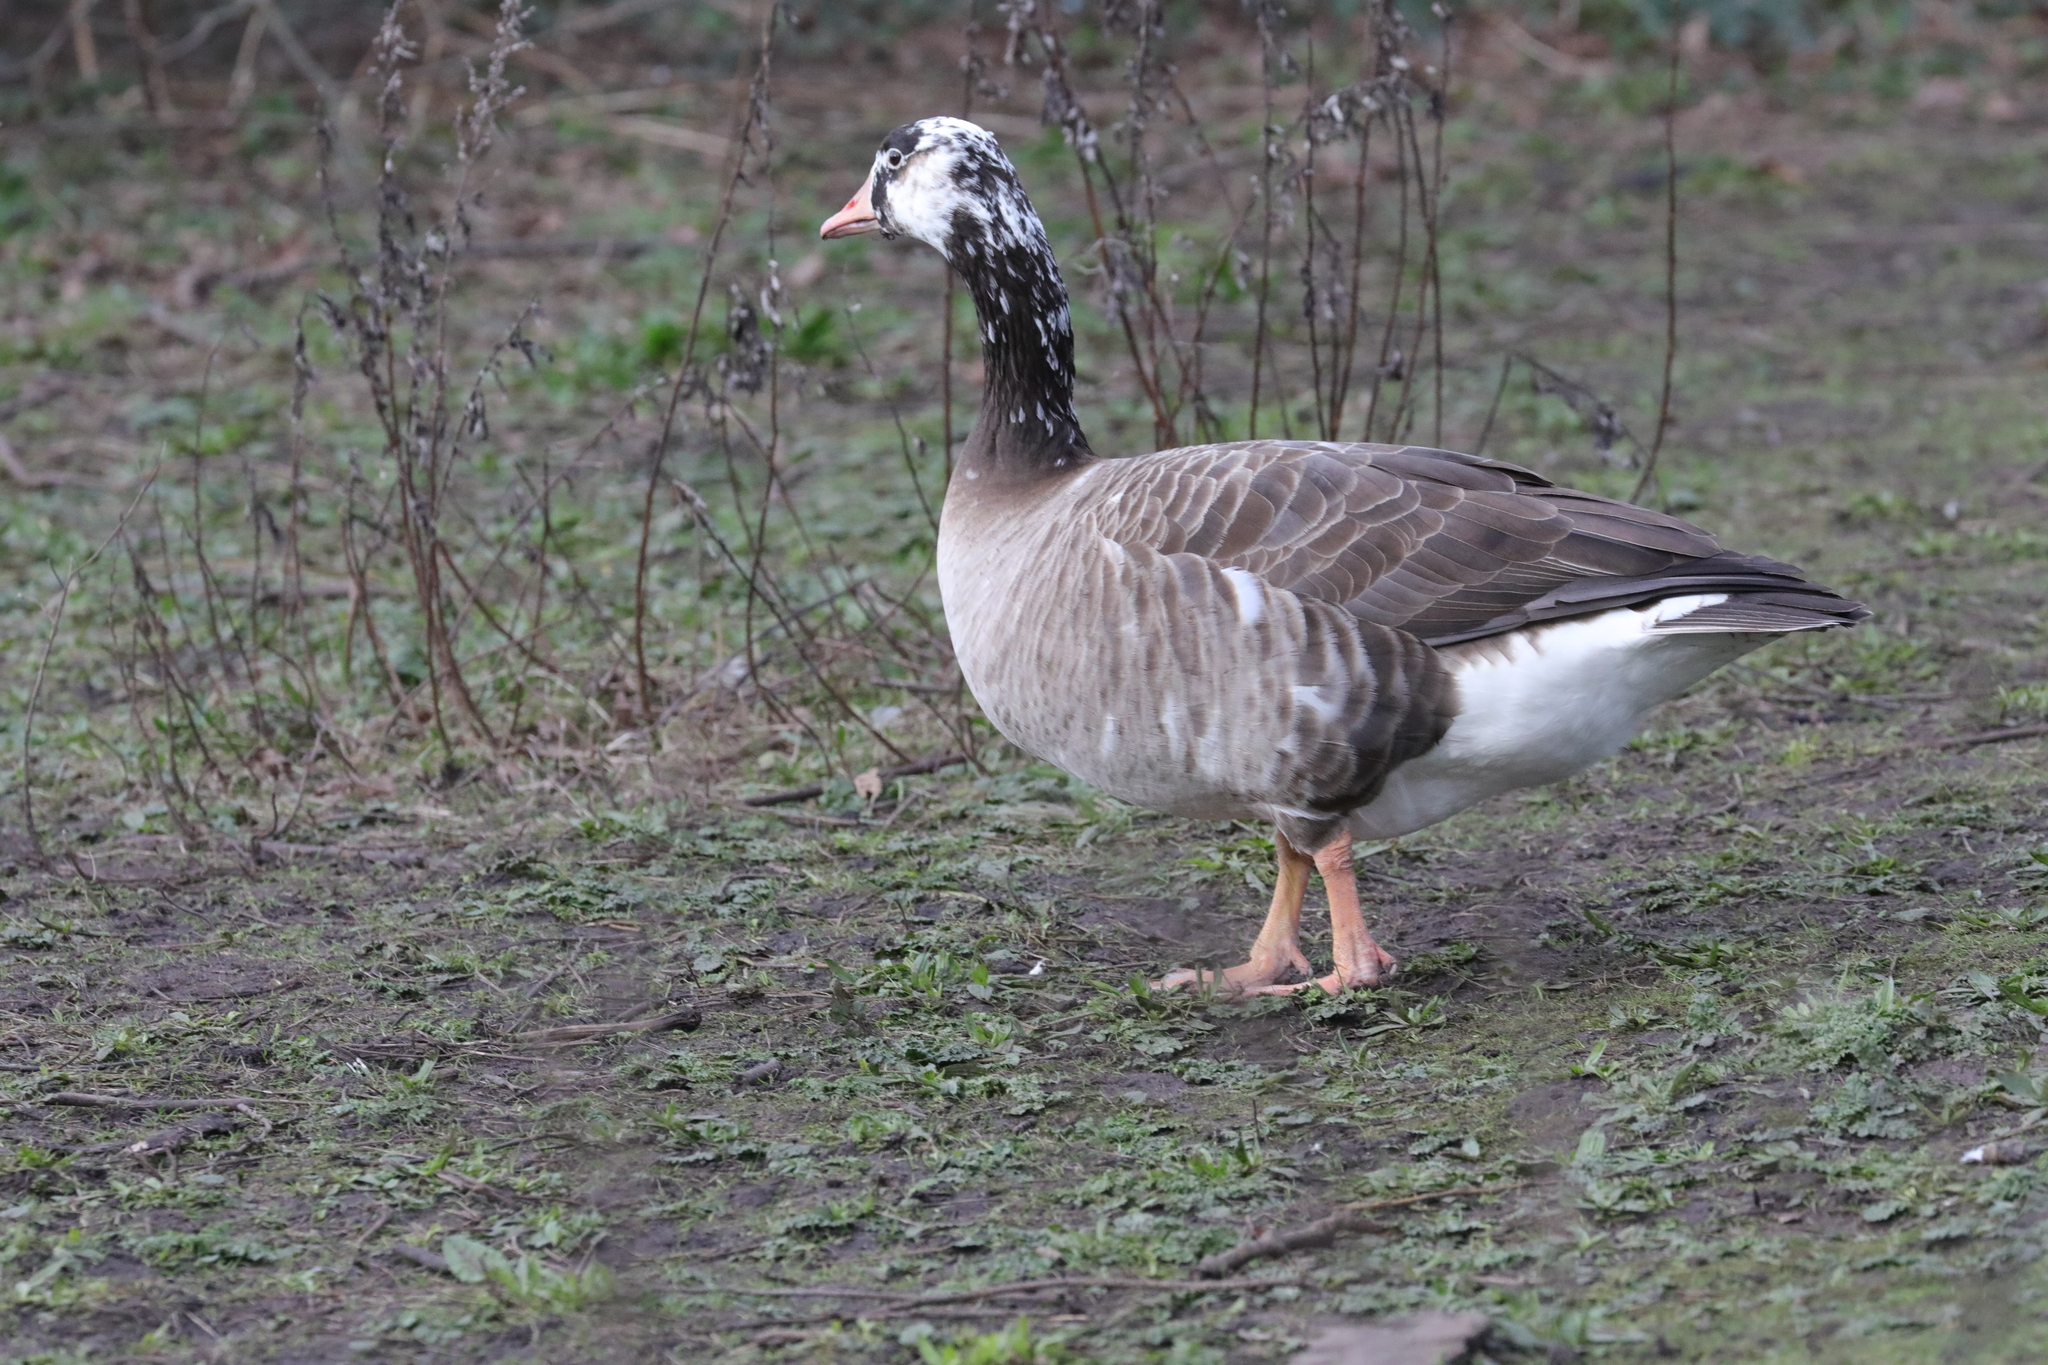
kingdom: Animalia
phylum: Chordata
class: Aves
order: Anseriformes
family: Anatidae
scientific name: Anatidae
